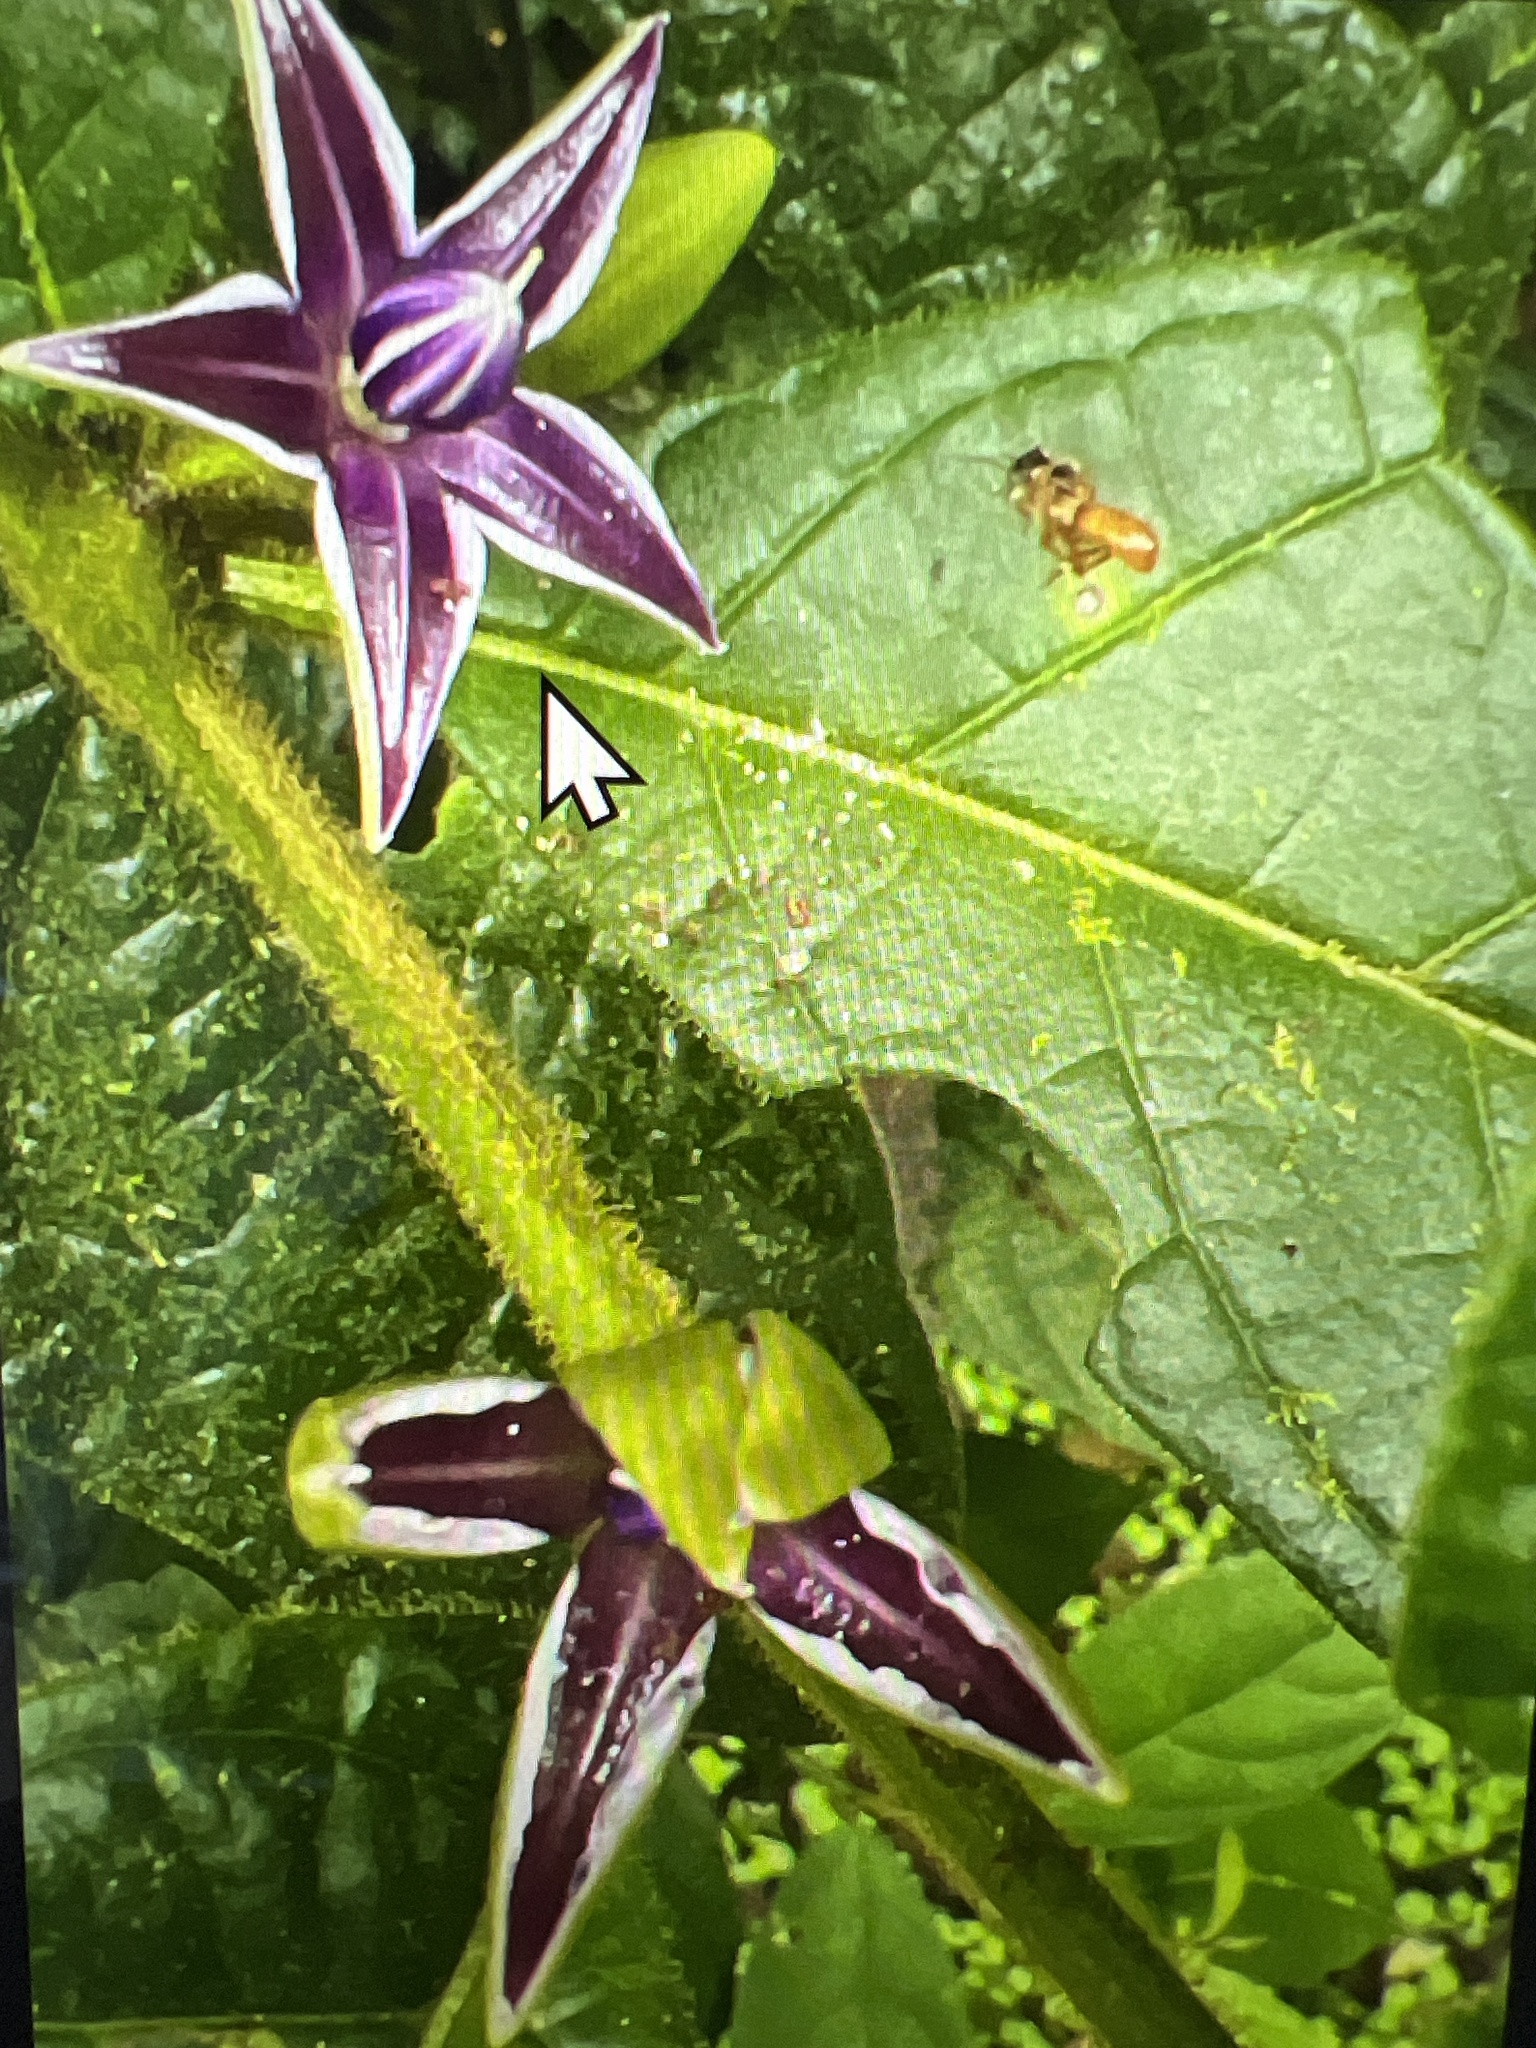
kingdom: Plantae
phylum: Tracheophyta
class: Magnoliopsida
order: Solanales
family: Solanaceae
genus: Lycianthes
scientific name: Lycianthes sanctaeclarae
